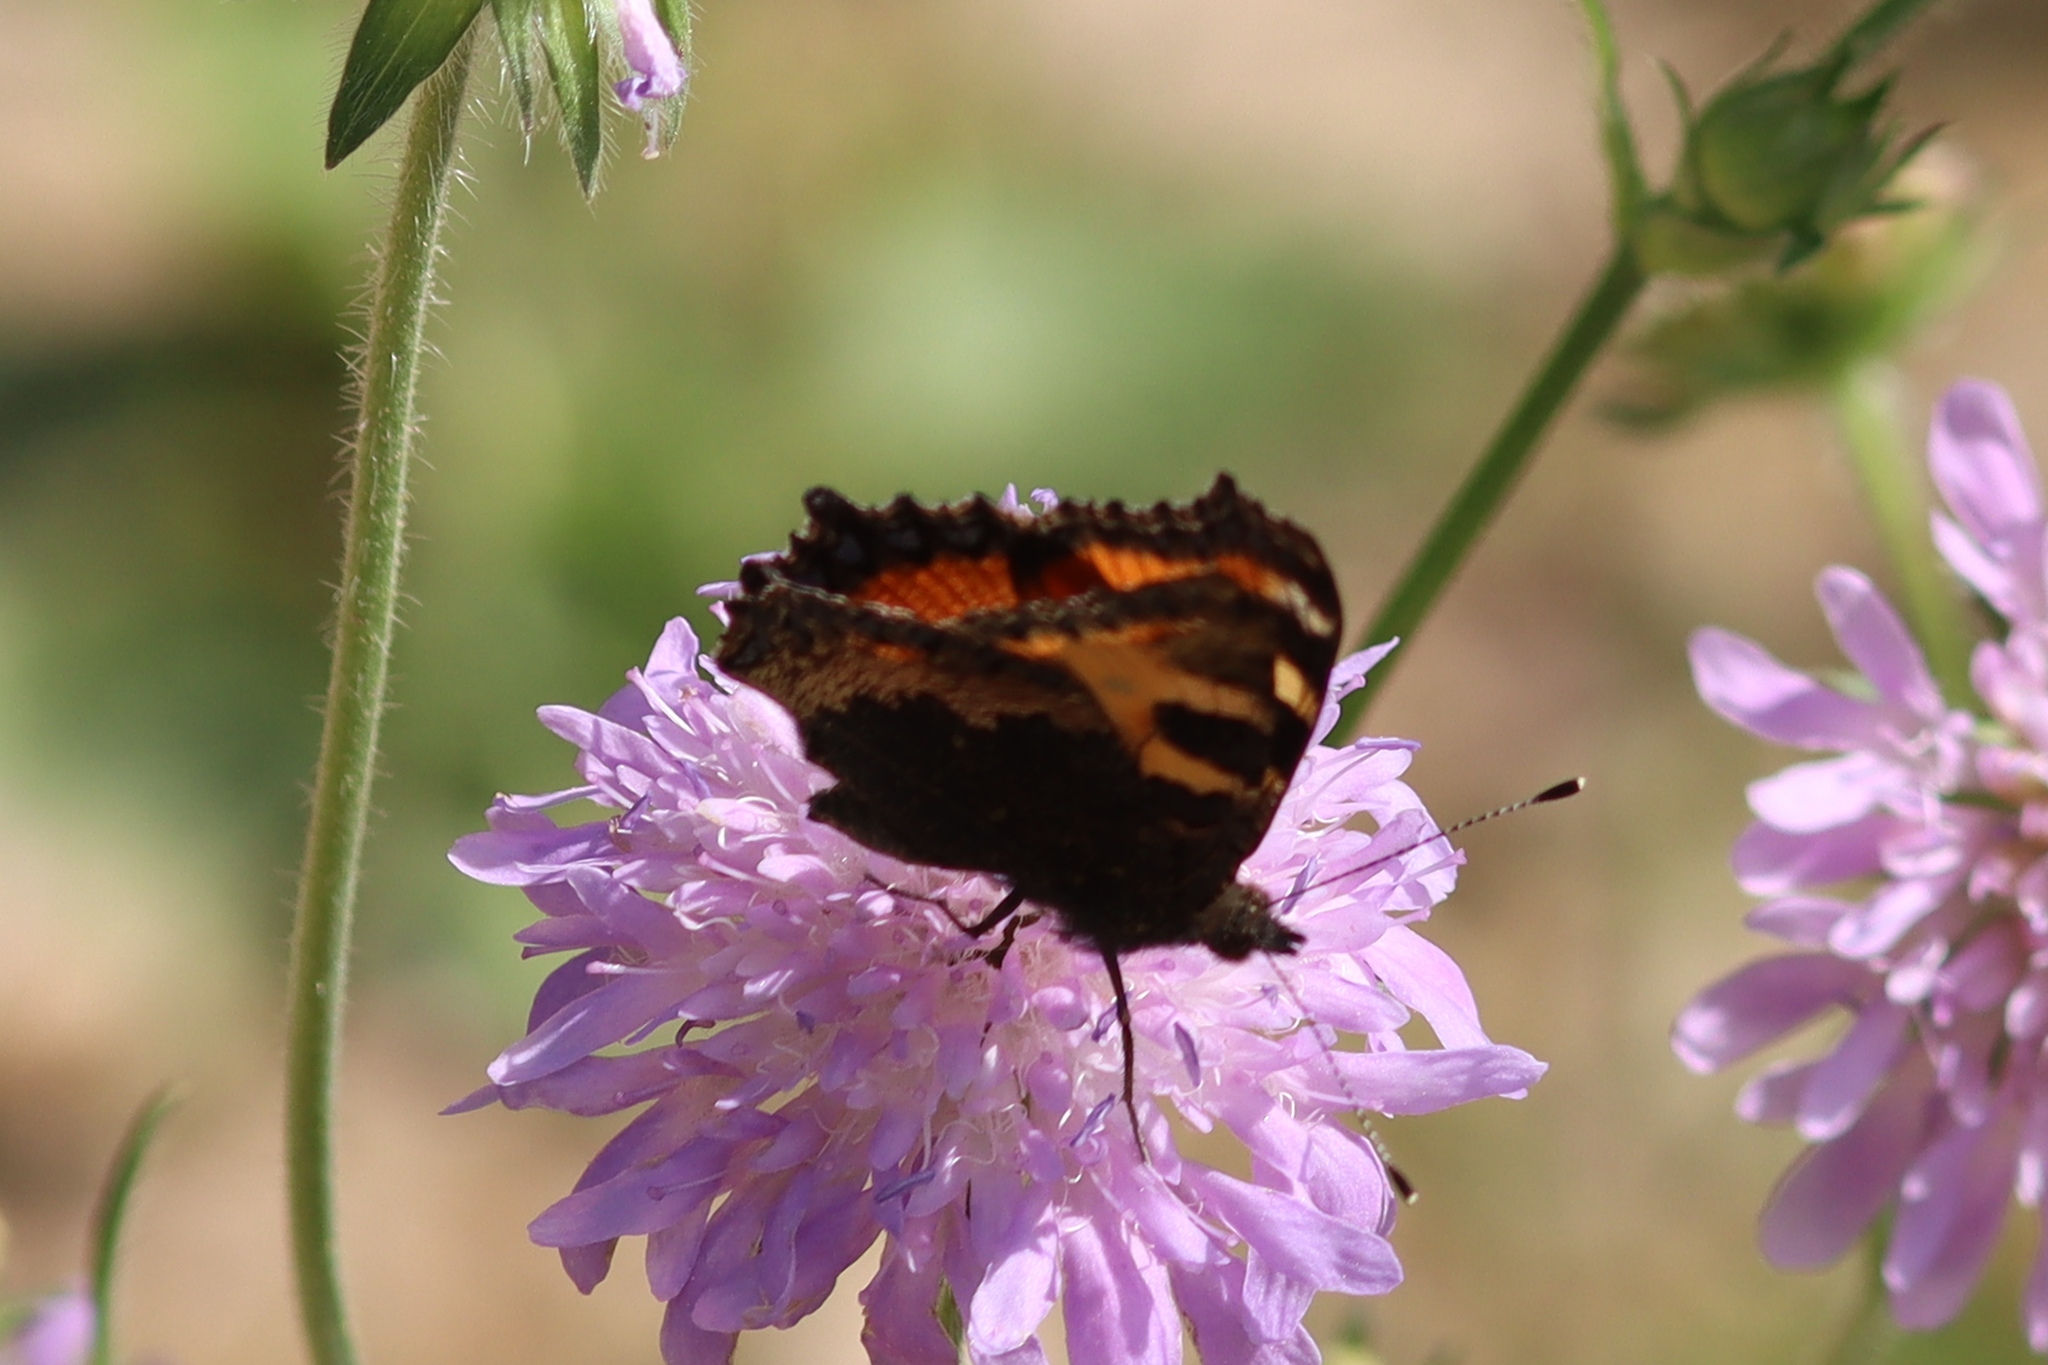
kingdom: Animalia
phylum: Arthropoda
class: Insecta
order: Lepidoptera
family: Nymphalidae
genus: Aglais
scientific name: Aglais urticae
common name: Small tortoiseshell
